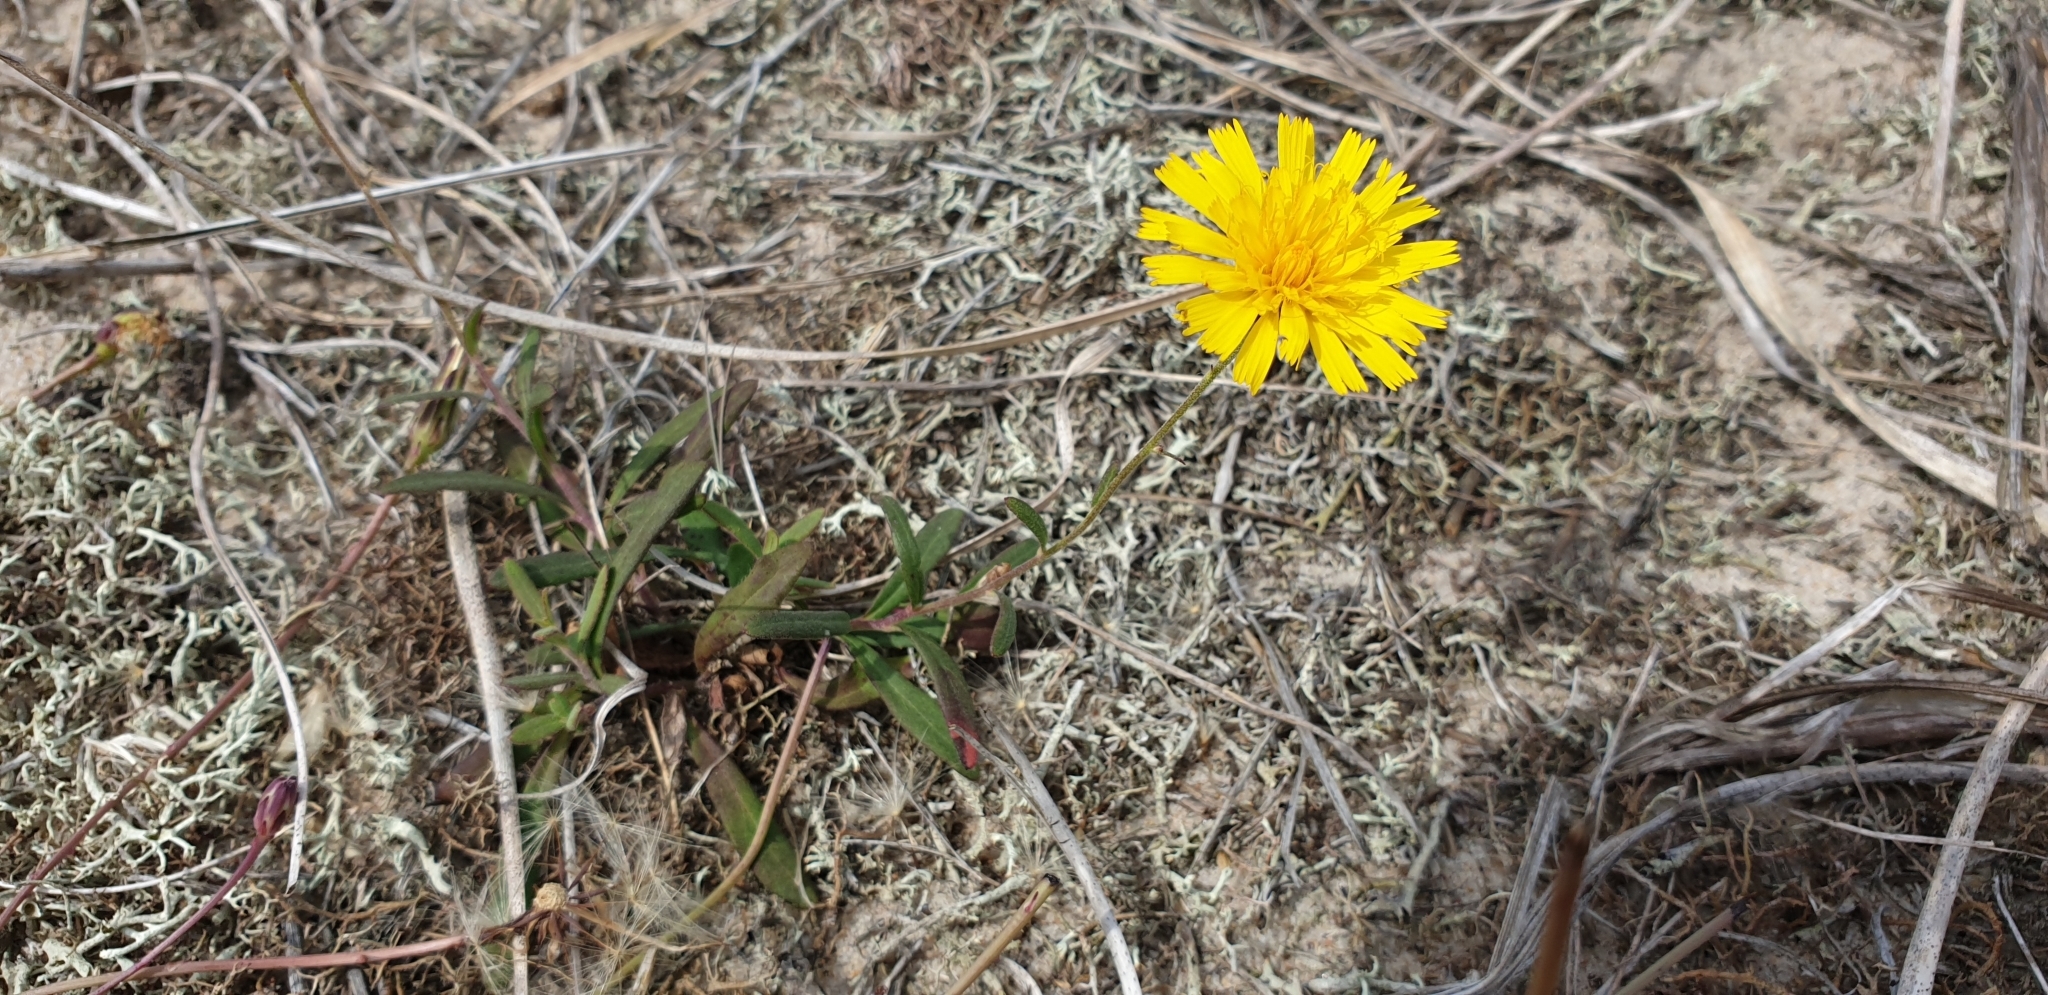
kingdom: Plantae
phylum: Tracheophyta
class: Magnoliopsida
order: Asterales
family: Asteraceae
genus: Hieracium
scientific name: Hieracium umbellatum
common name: Northern hawkweed
